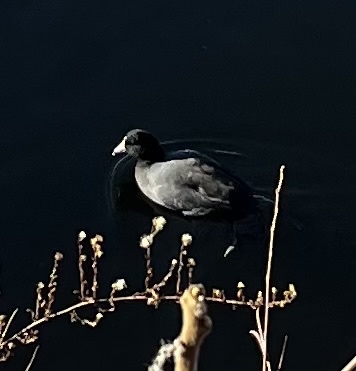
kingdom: Animalia
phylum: Chordata
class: Aves
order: Gruiformes
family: Rallidae
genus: Fulica
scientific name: Fulica americana
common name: American coot
